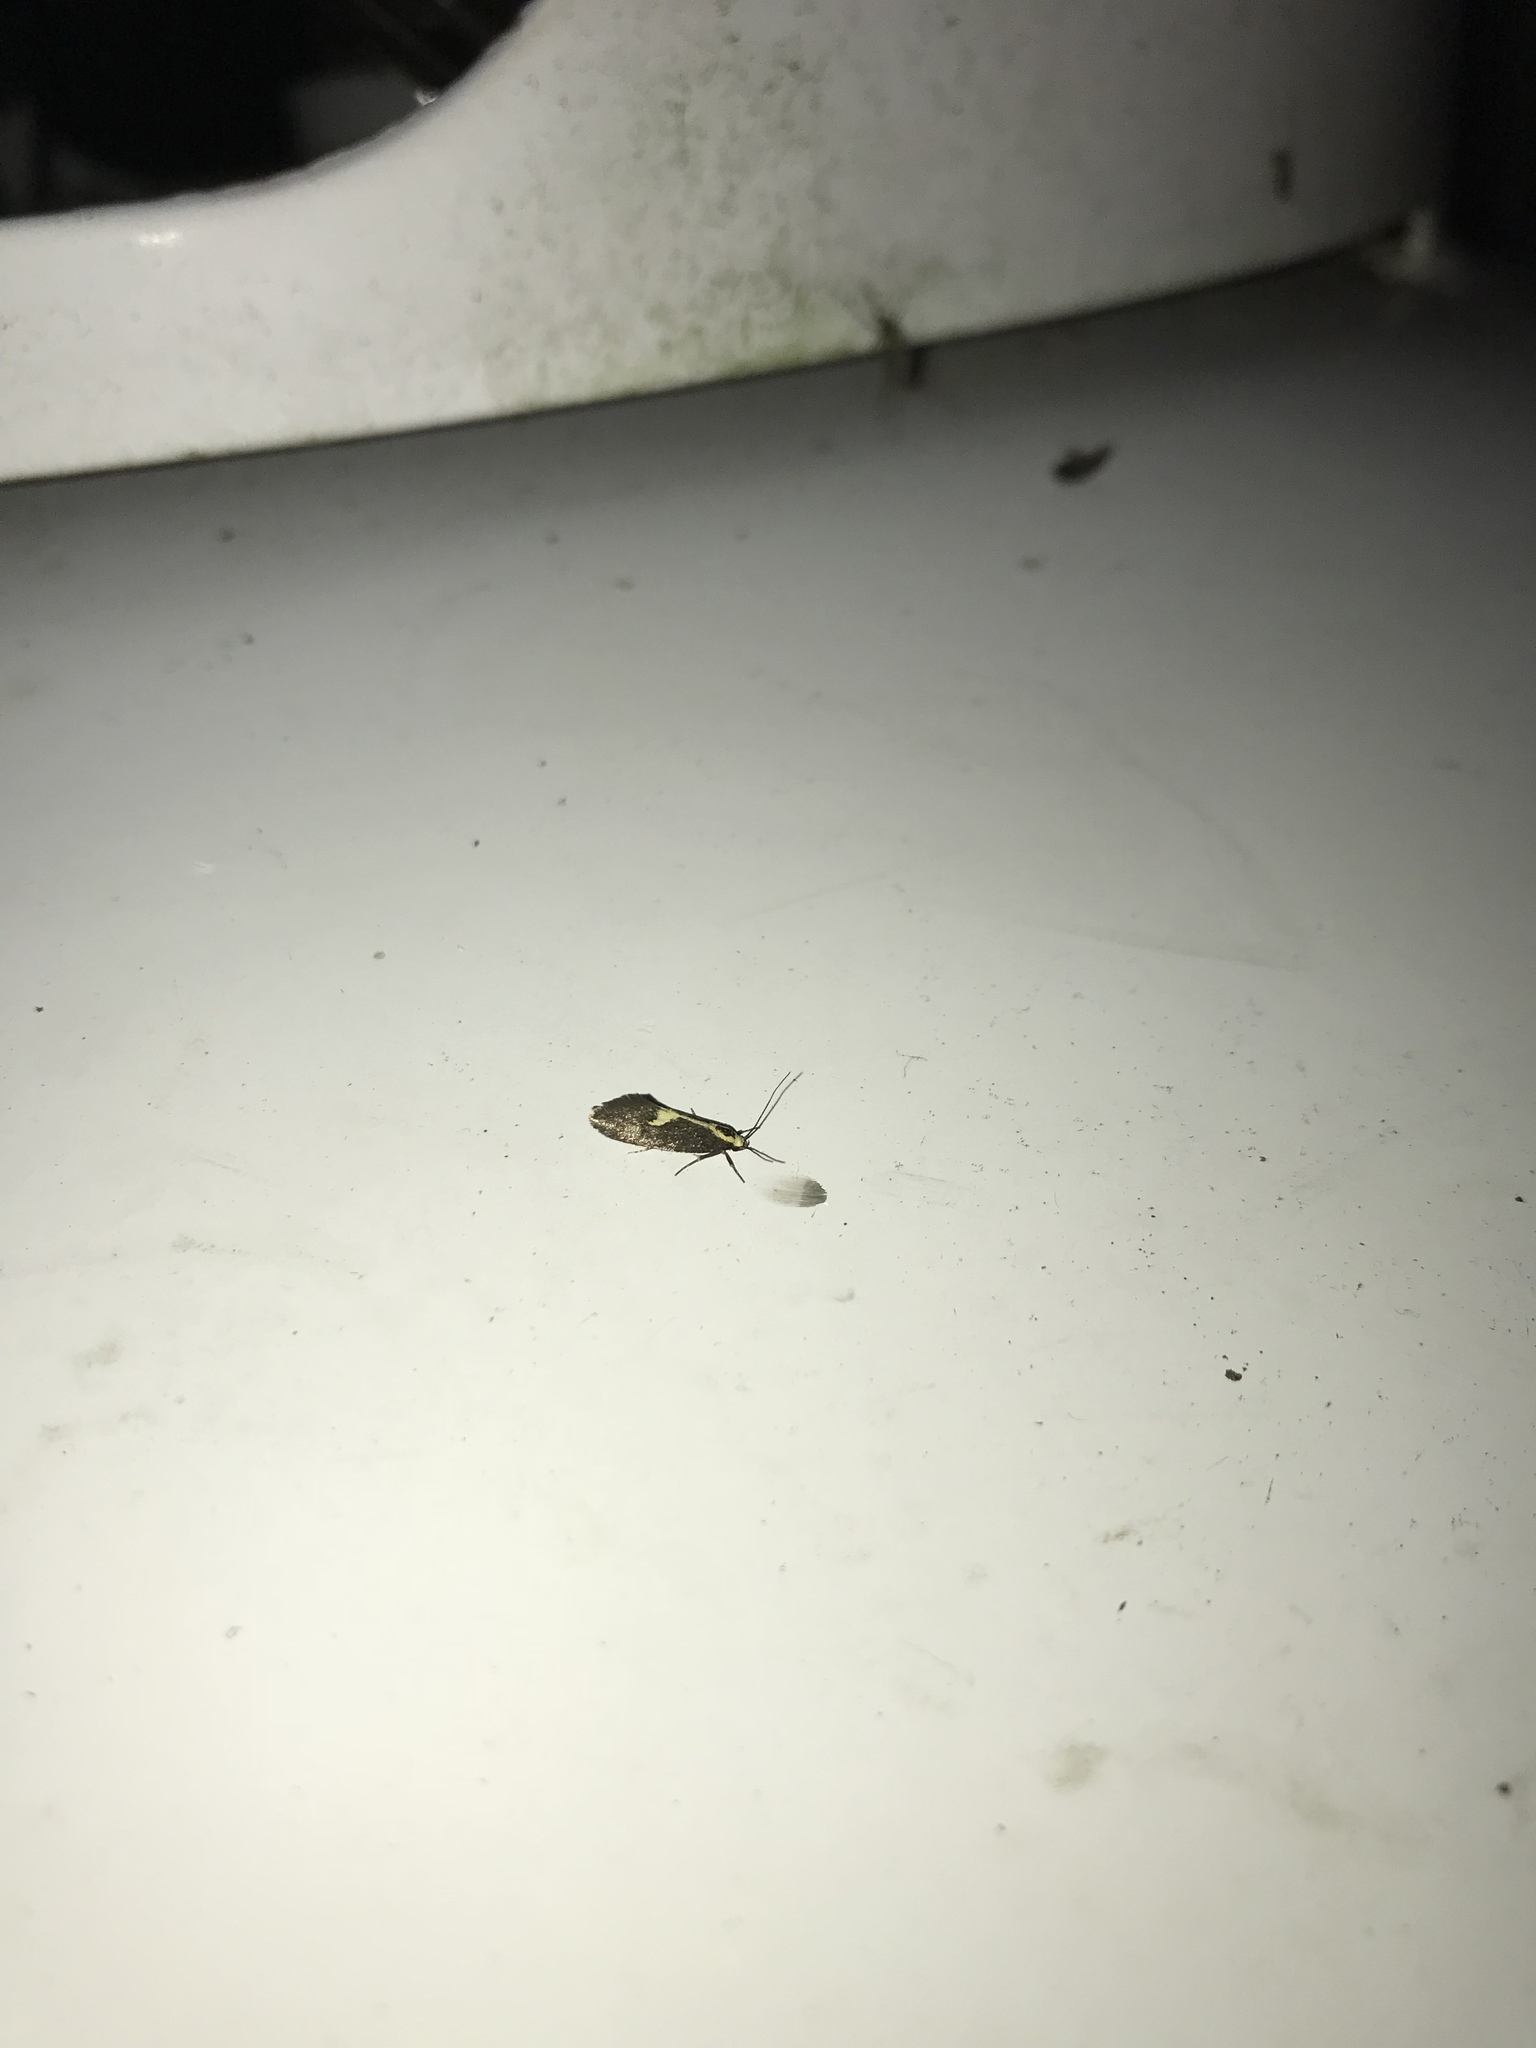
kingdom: Animalia
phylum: Arthropoda
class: Insecta
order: Lepidoptera
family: Oecophoridae
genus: Polix
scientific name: Polix coloradella
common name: Skunk moth
